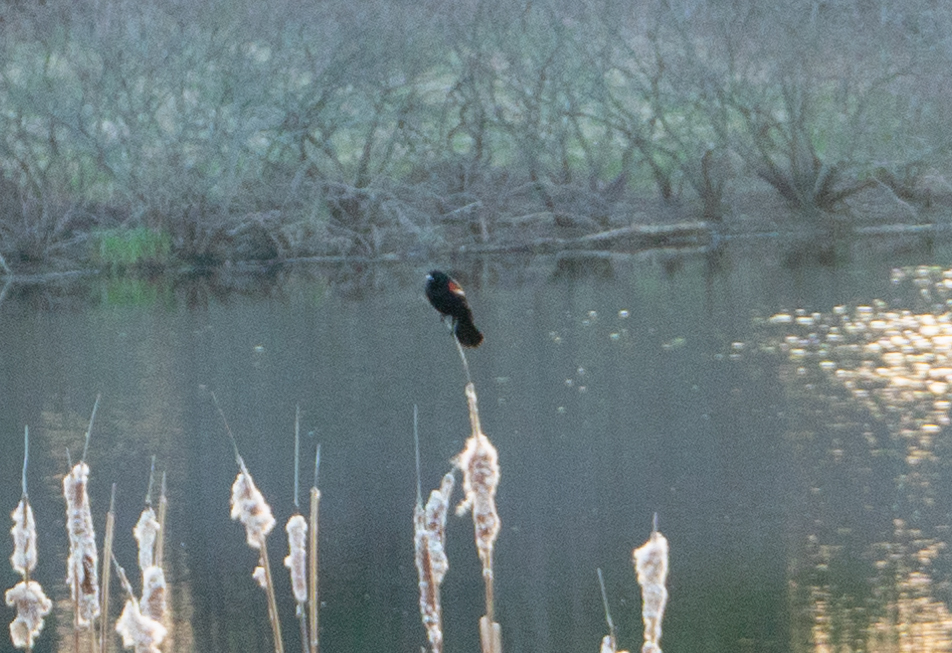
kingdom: Animalia
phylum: Chordata
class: Aves
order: Passeriformes
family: Icteridae
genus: Agelaius
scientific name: Agelaius phoeniceus
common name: Red-winged blackbird
